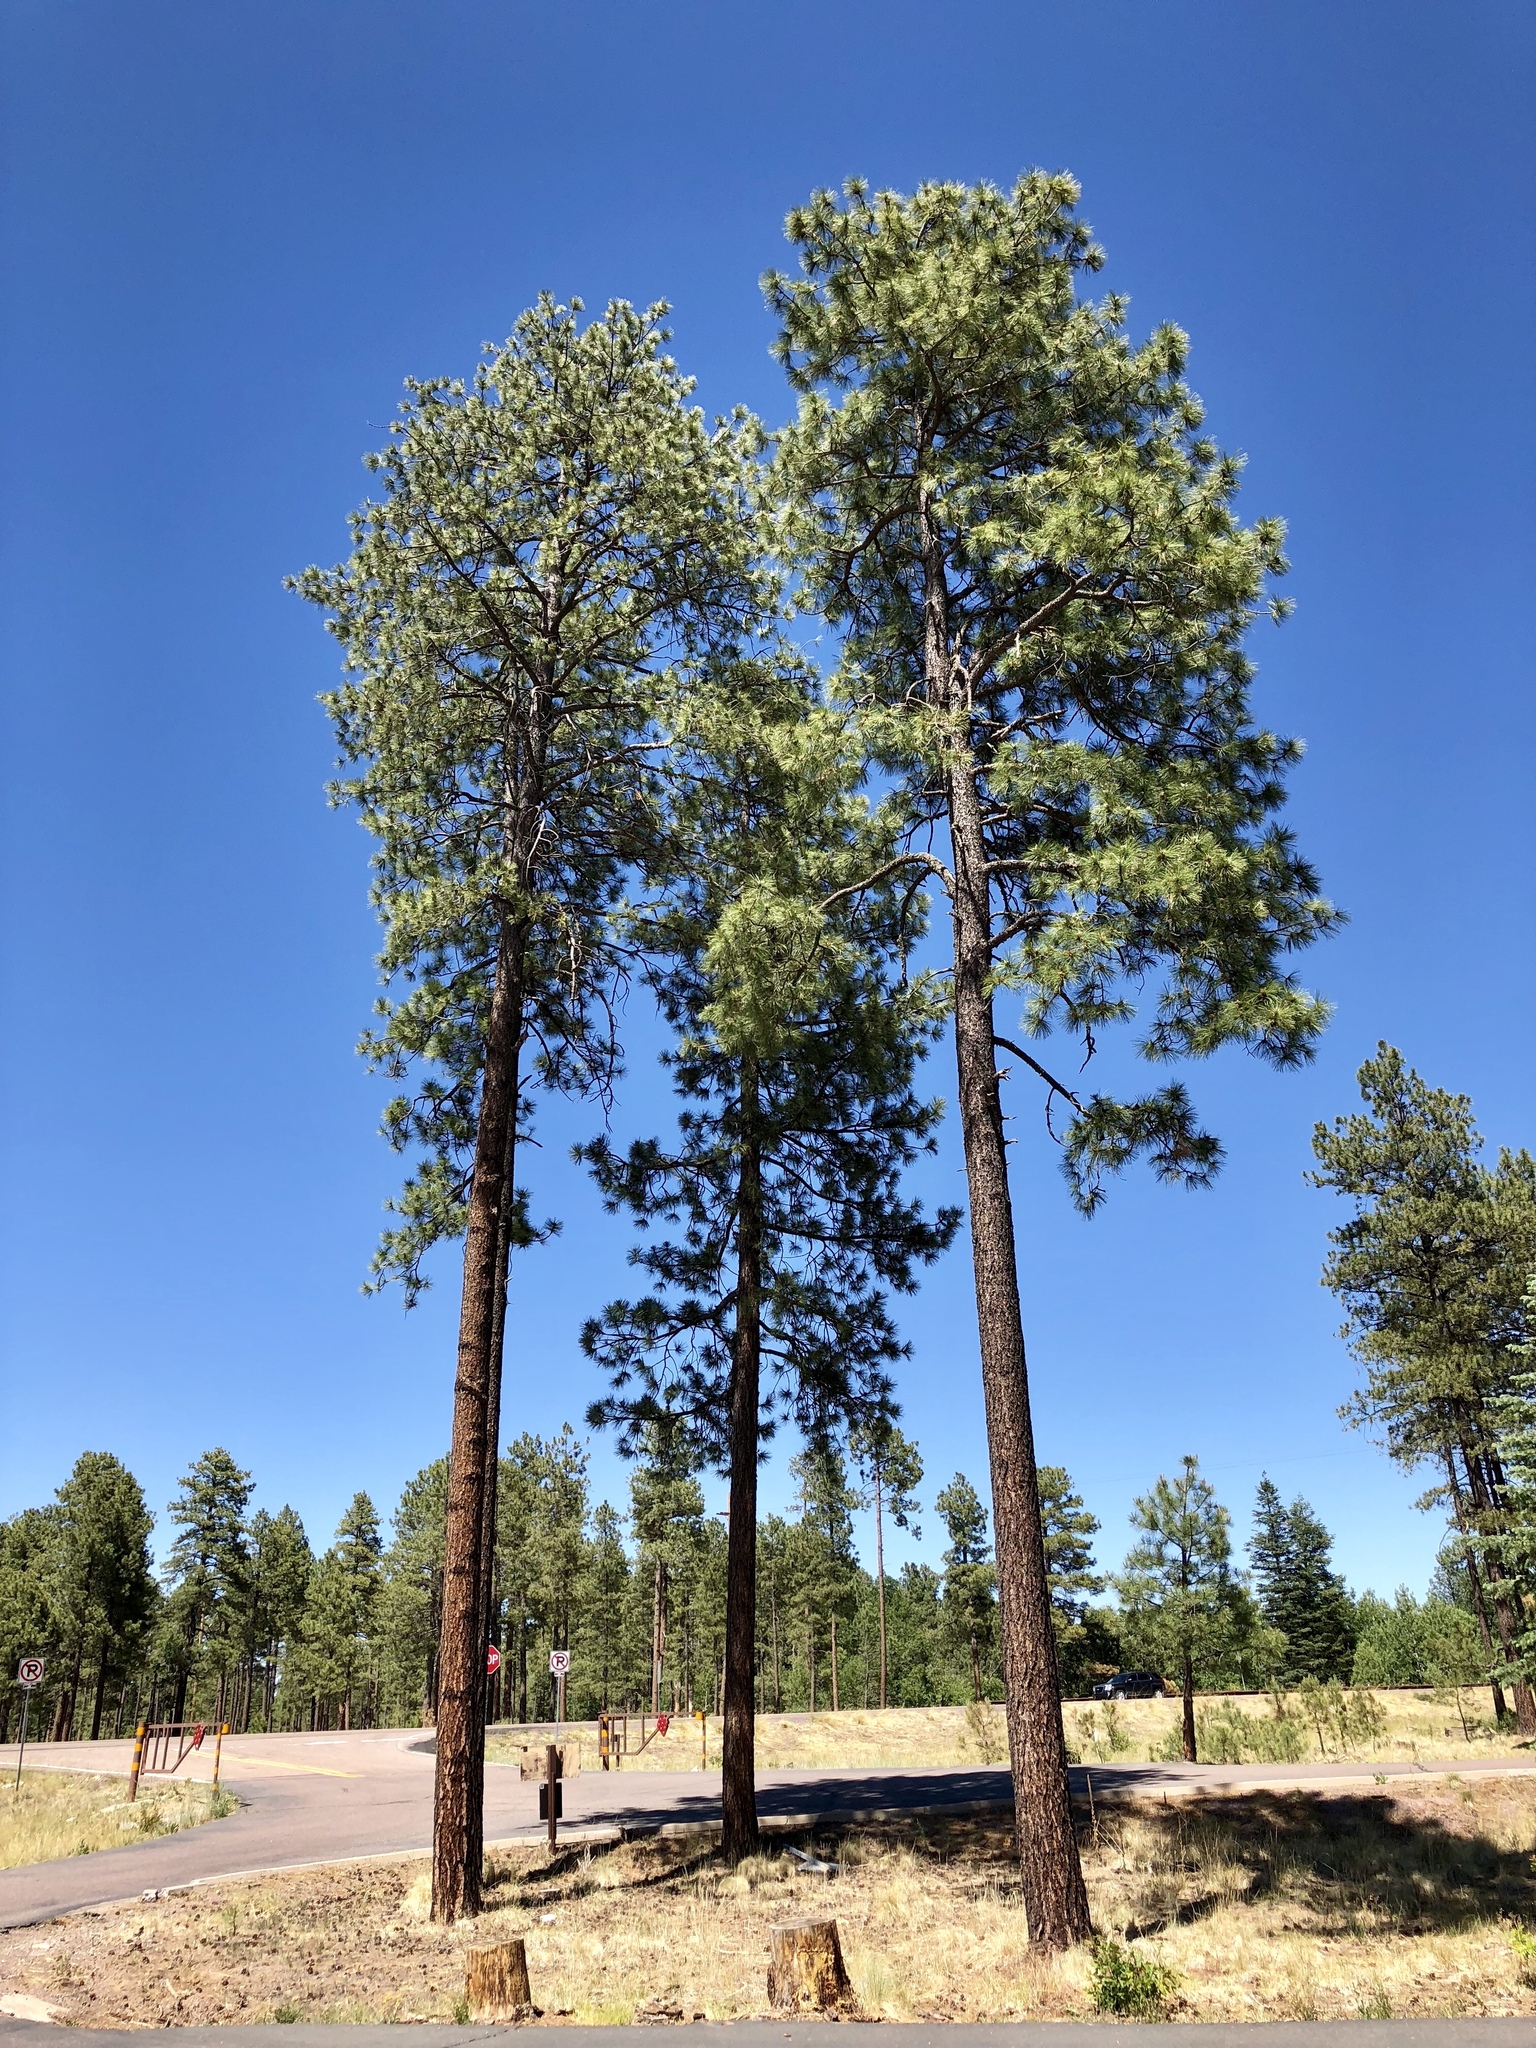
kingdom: Plantae
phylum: Tracheophyta
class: Pinopsida
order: Pinales
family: Pinaceae
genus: Pinus
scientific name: Pinus ponderosa
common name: Western yellow-pine
